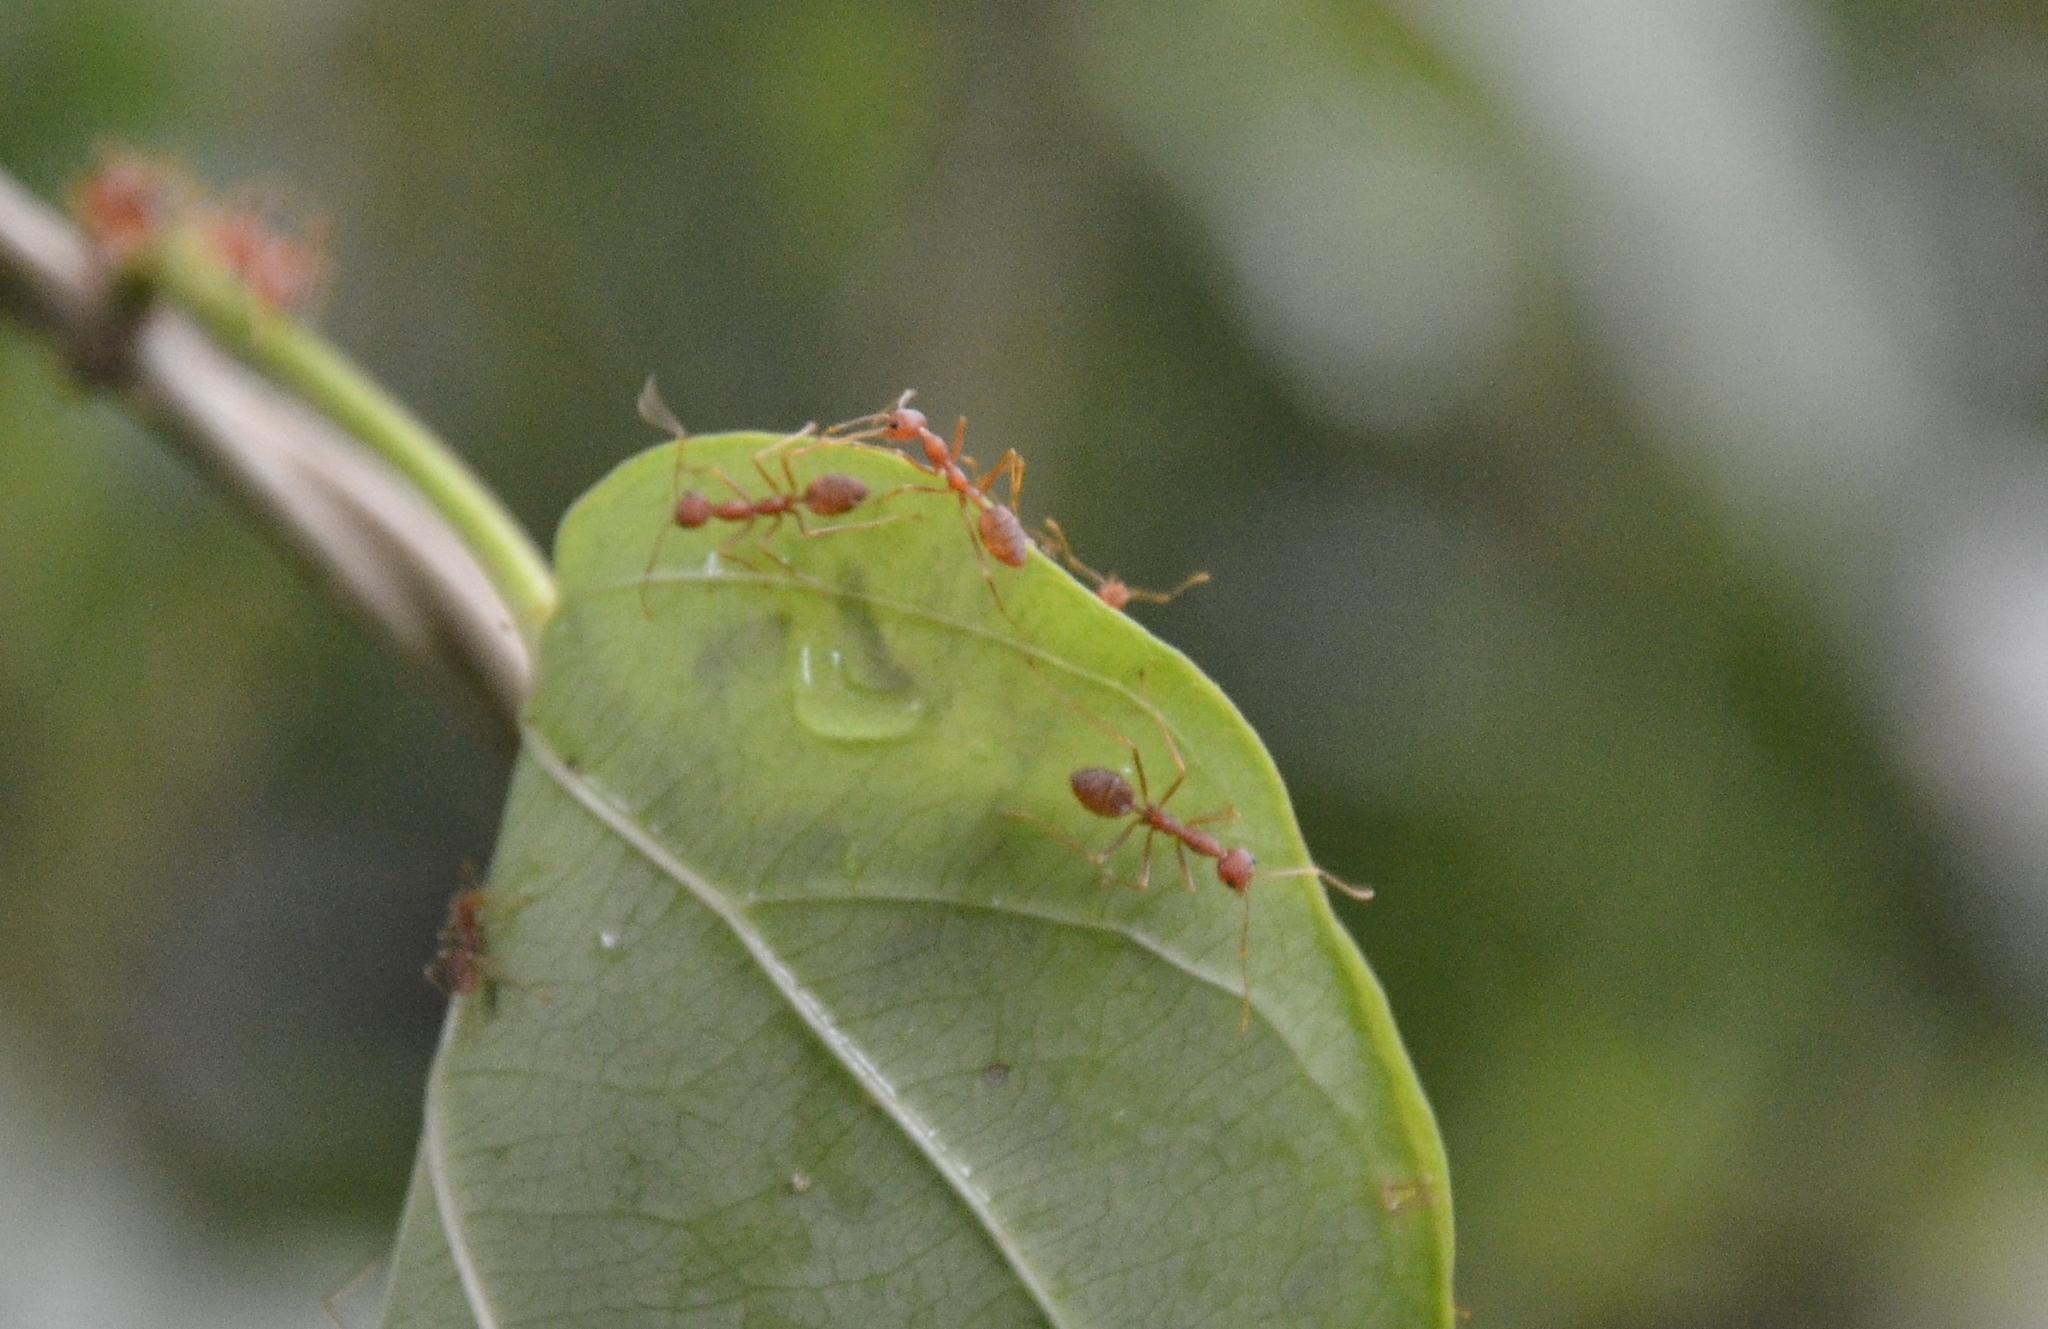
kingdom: Animalia
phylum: Arthropoda
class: Insecta
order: Hymenoptera
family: Formicidae
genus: Oecophylla
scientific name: Oecophylla smaragdina
